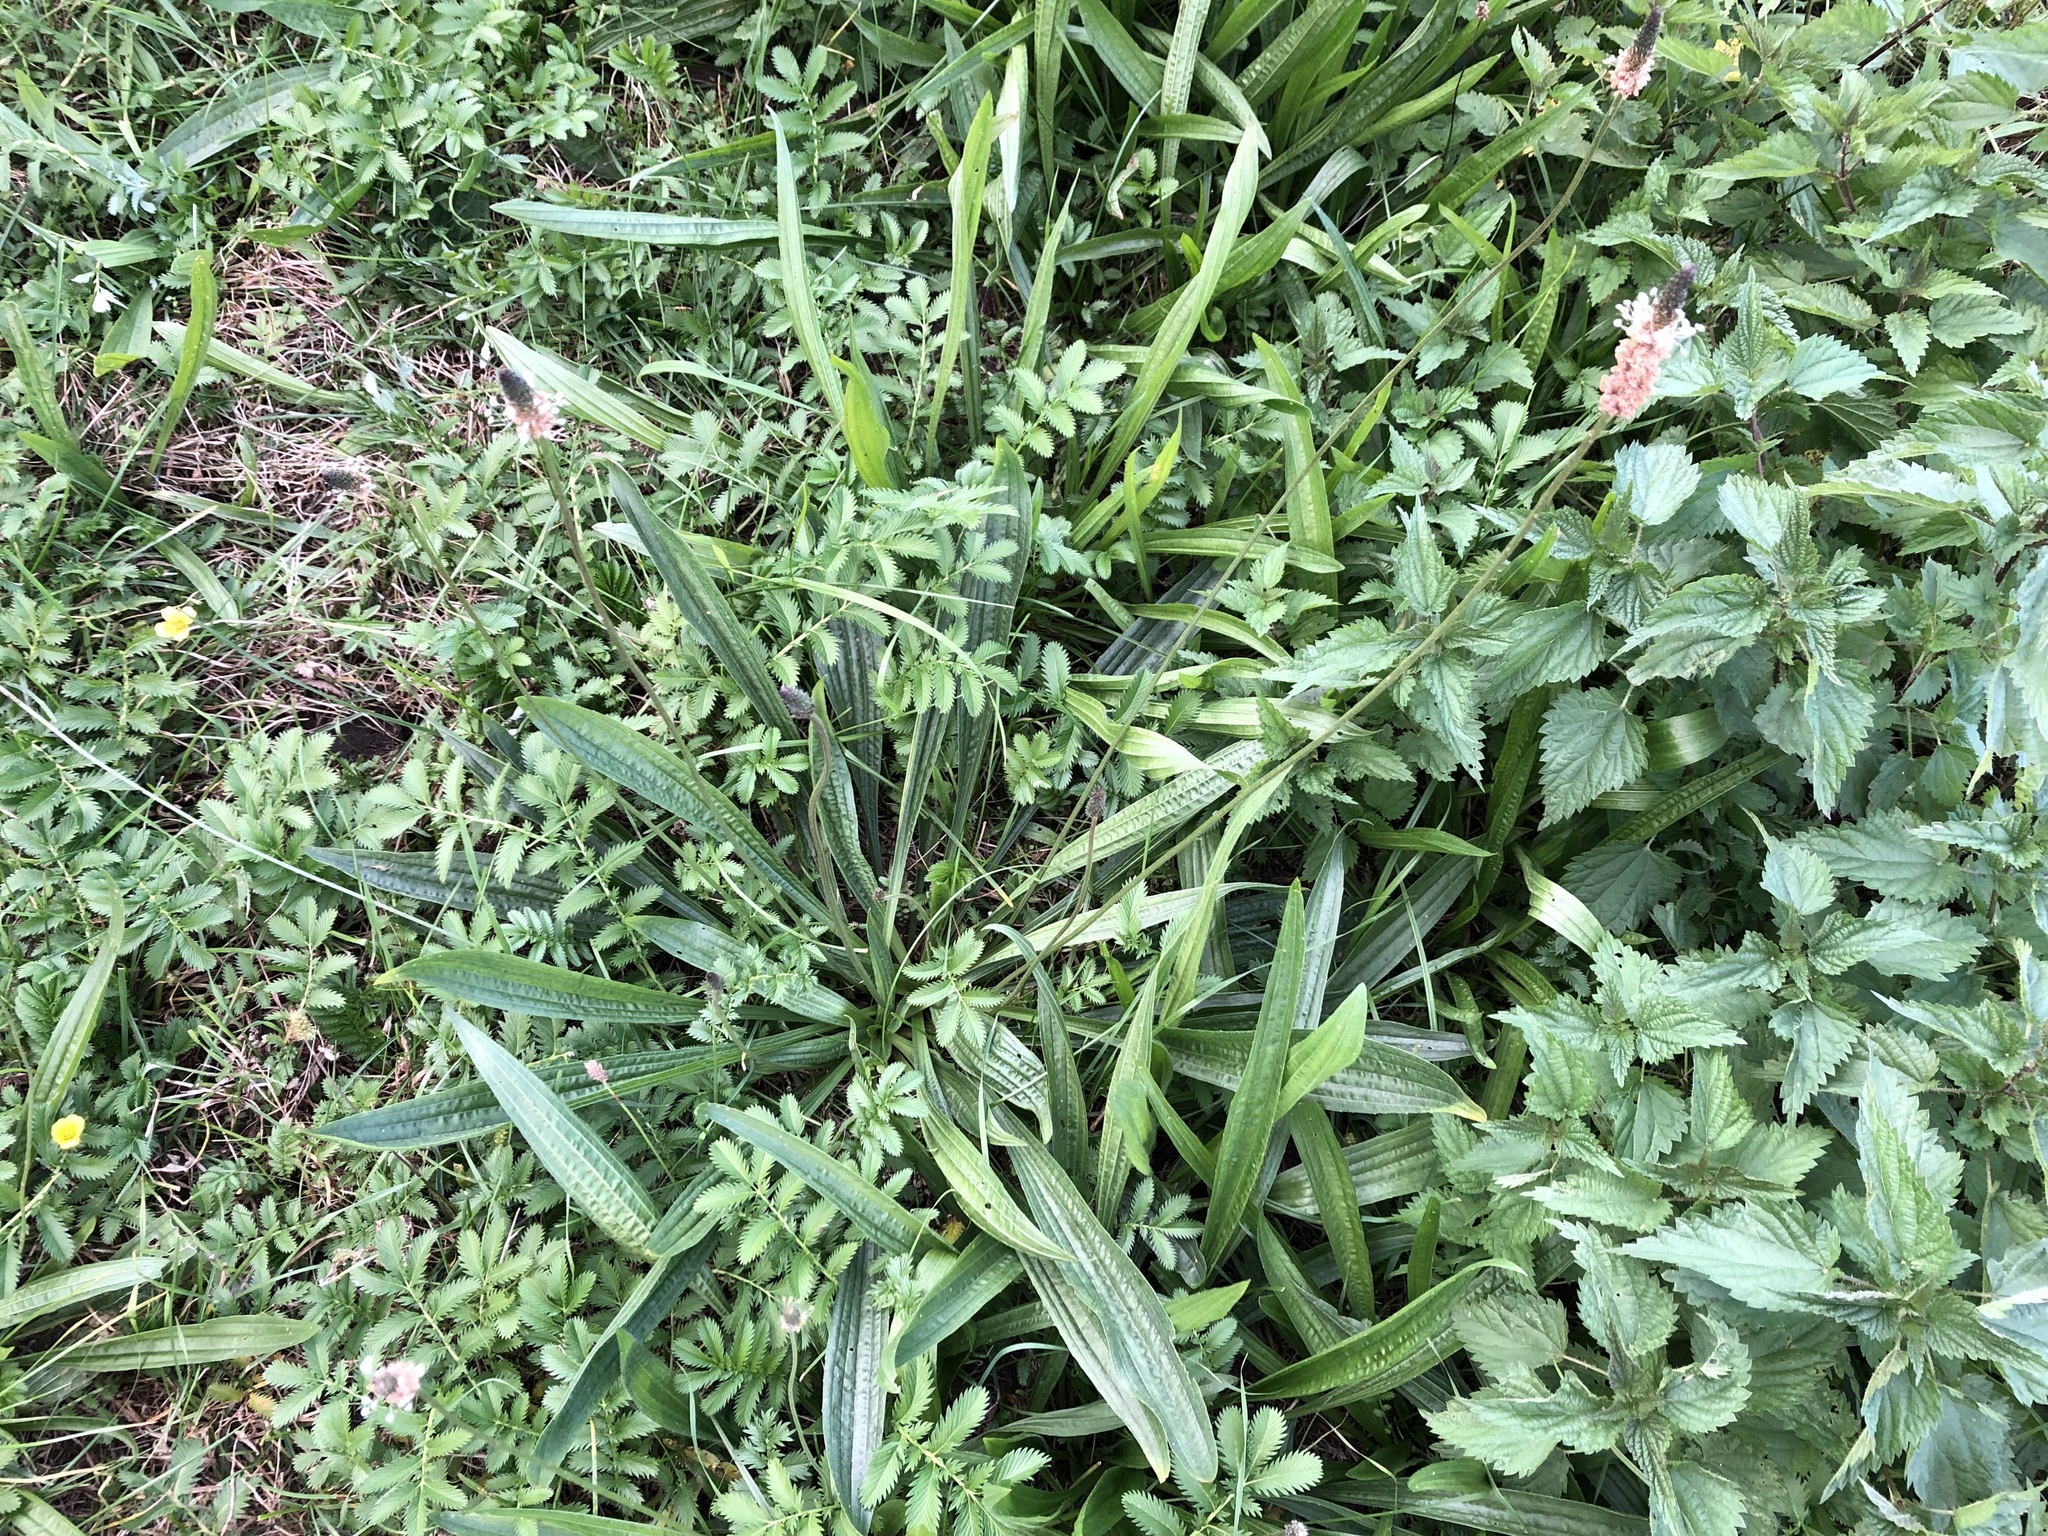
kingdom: Plantae
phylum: Tracheophyta
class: Magnoliopsida
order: Lamiales
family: Plantaginaceae
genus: Plantago
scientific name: Plantago lanceolata
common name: Ribwort plantain
